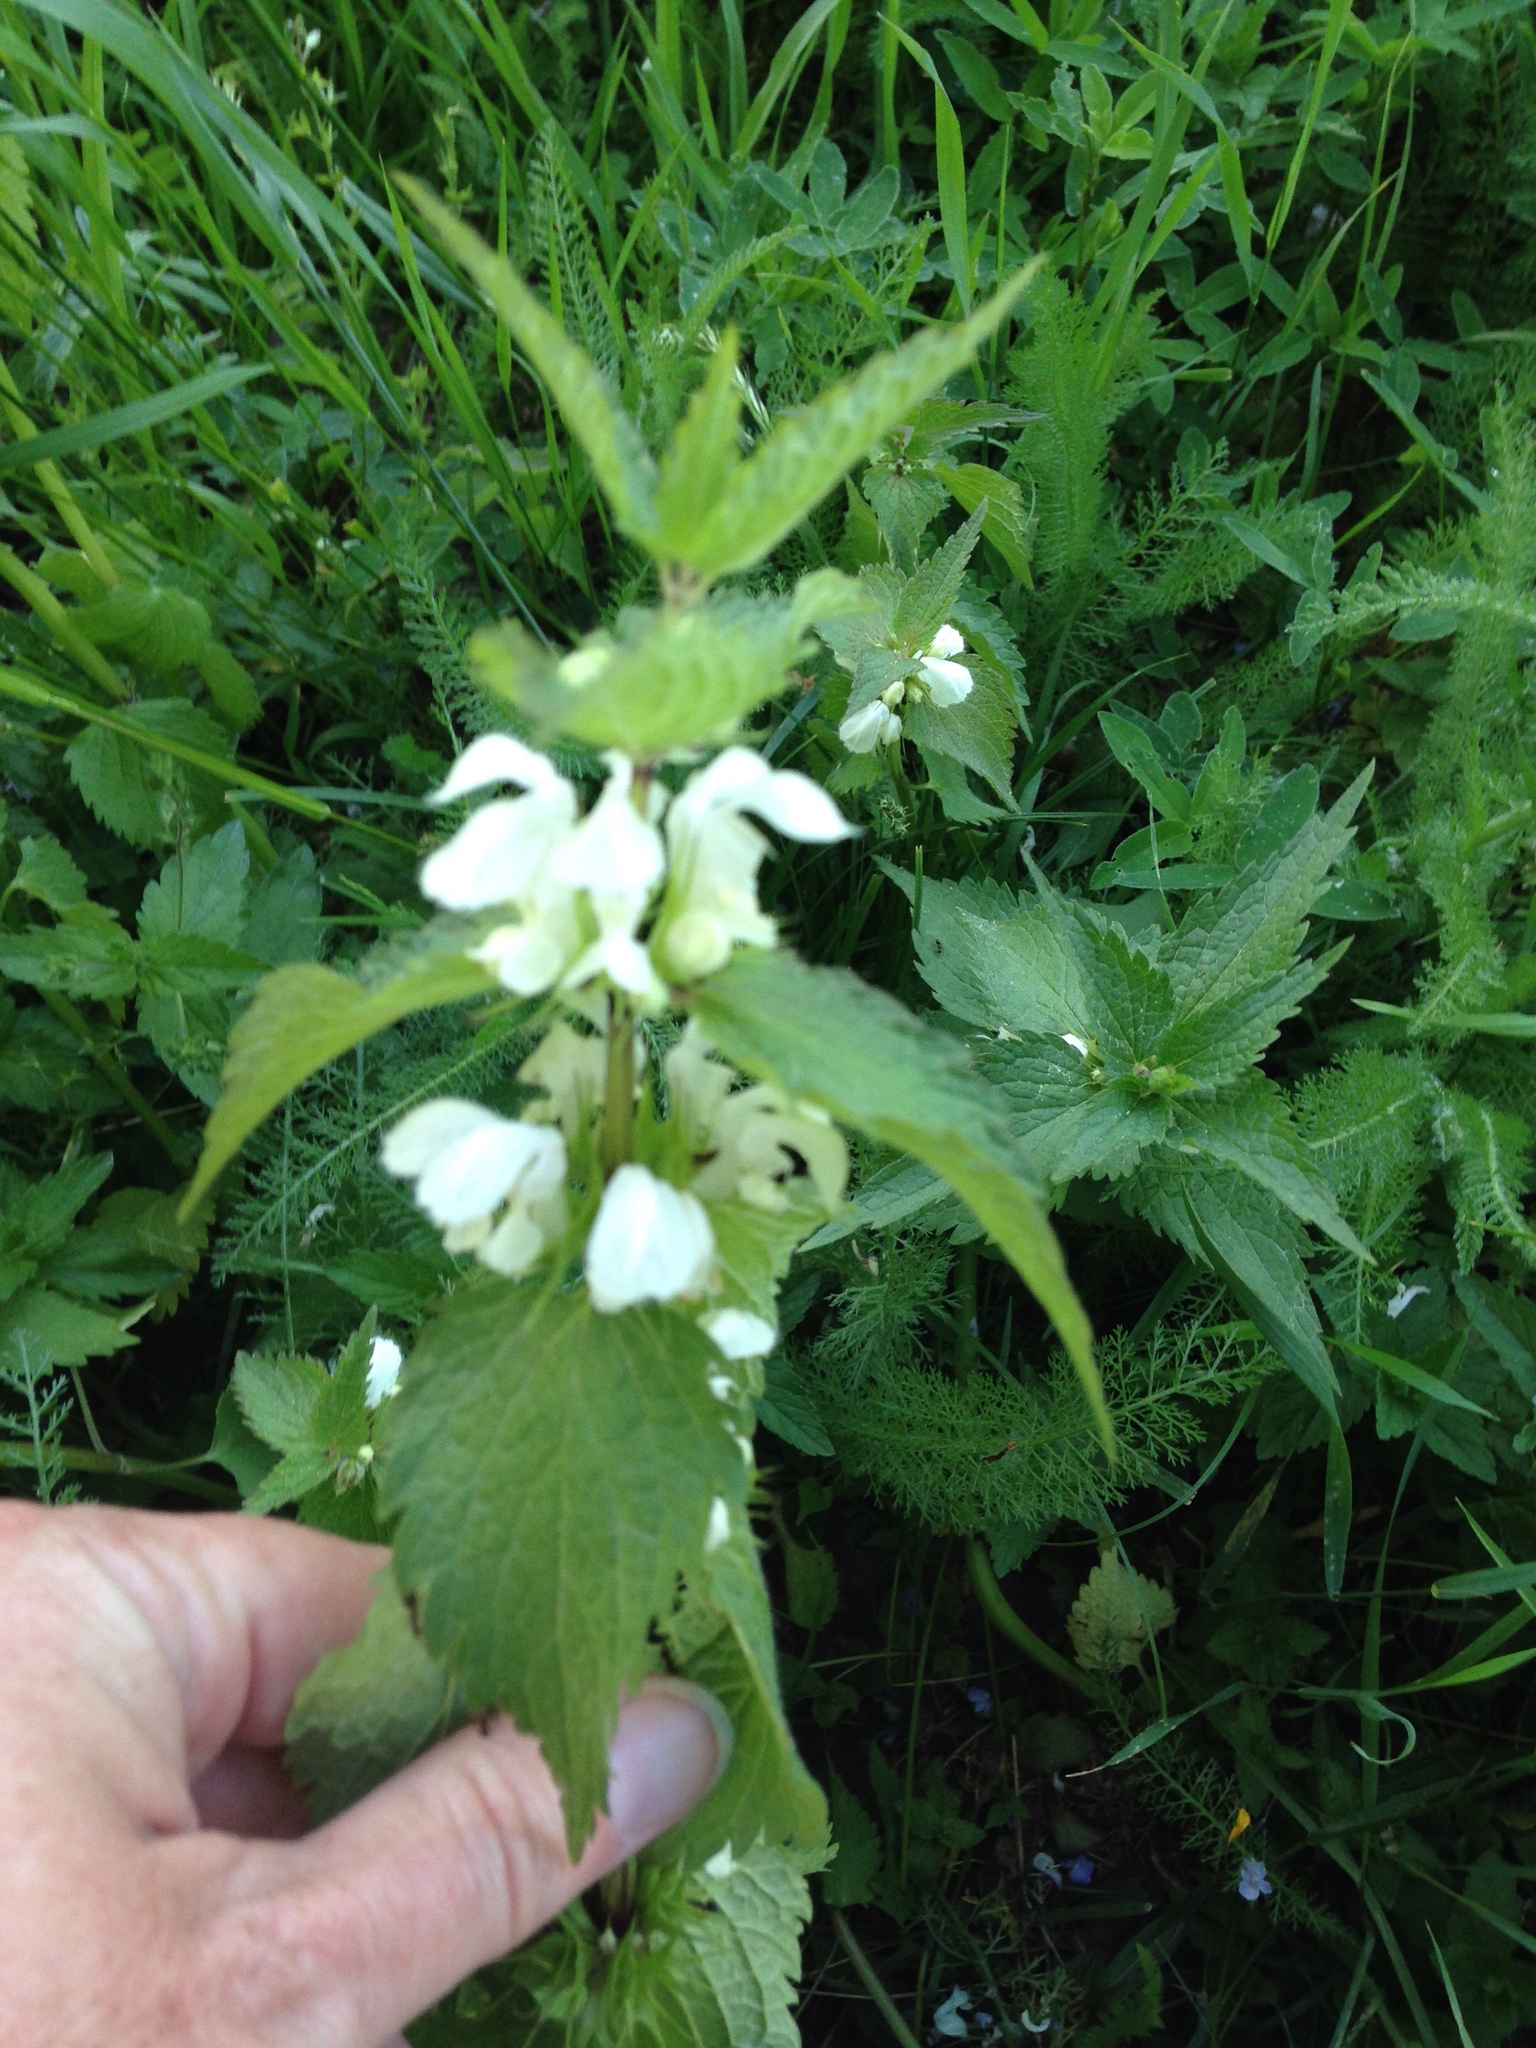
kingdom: Plantae
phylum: Tracheophyta
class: Magnoliopsida
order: Lamiales
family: Lamiaceae
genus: Lamium
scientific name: Lamium album
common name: White dead-nettle
